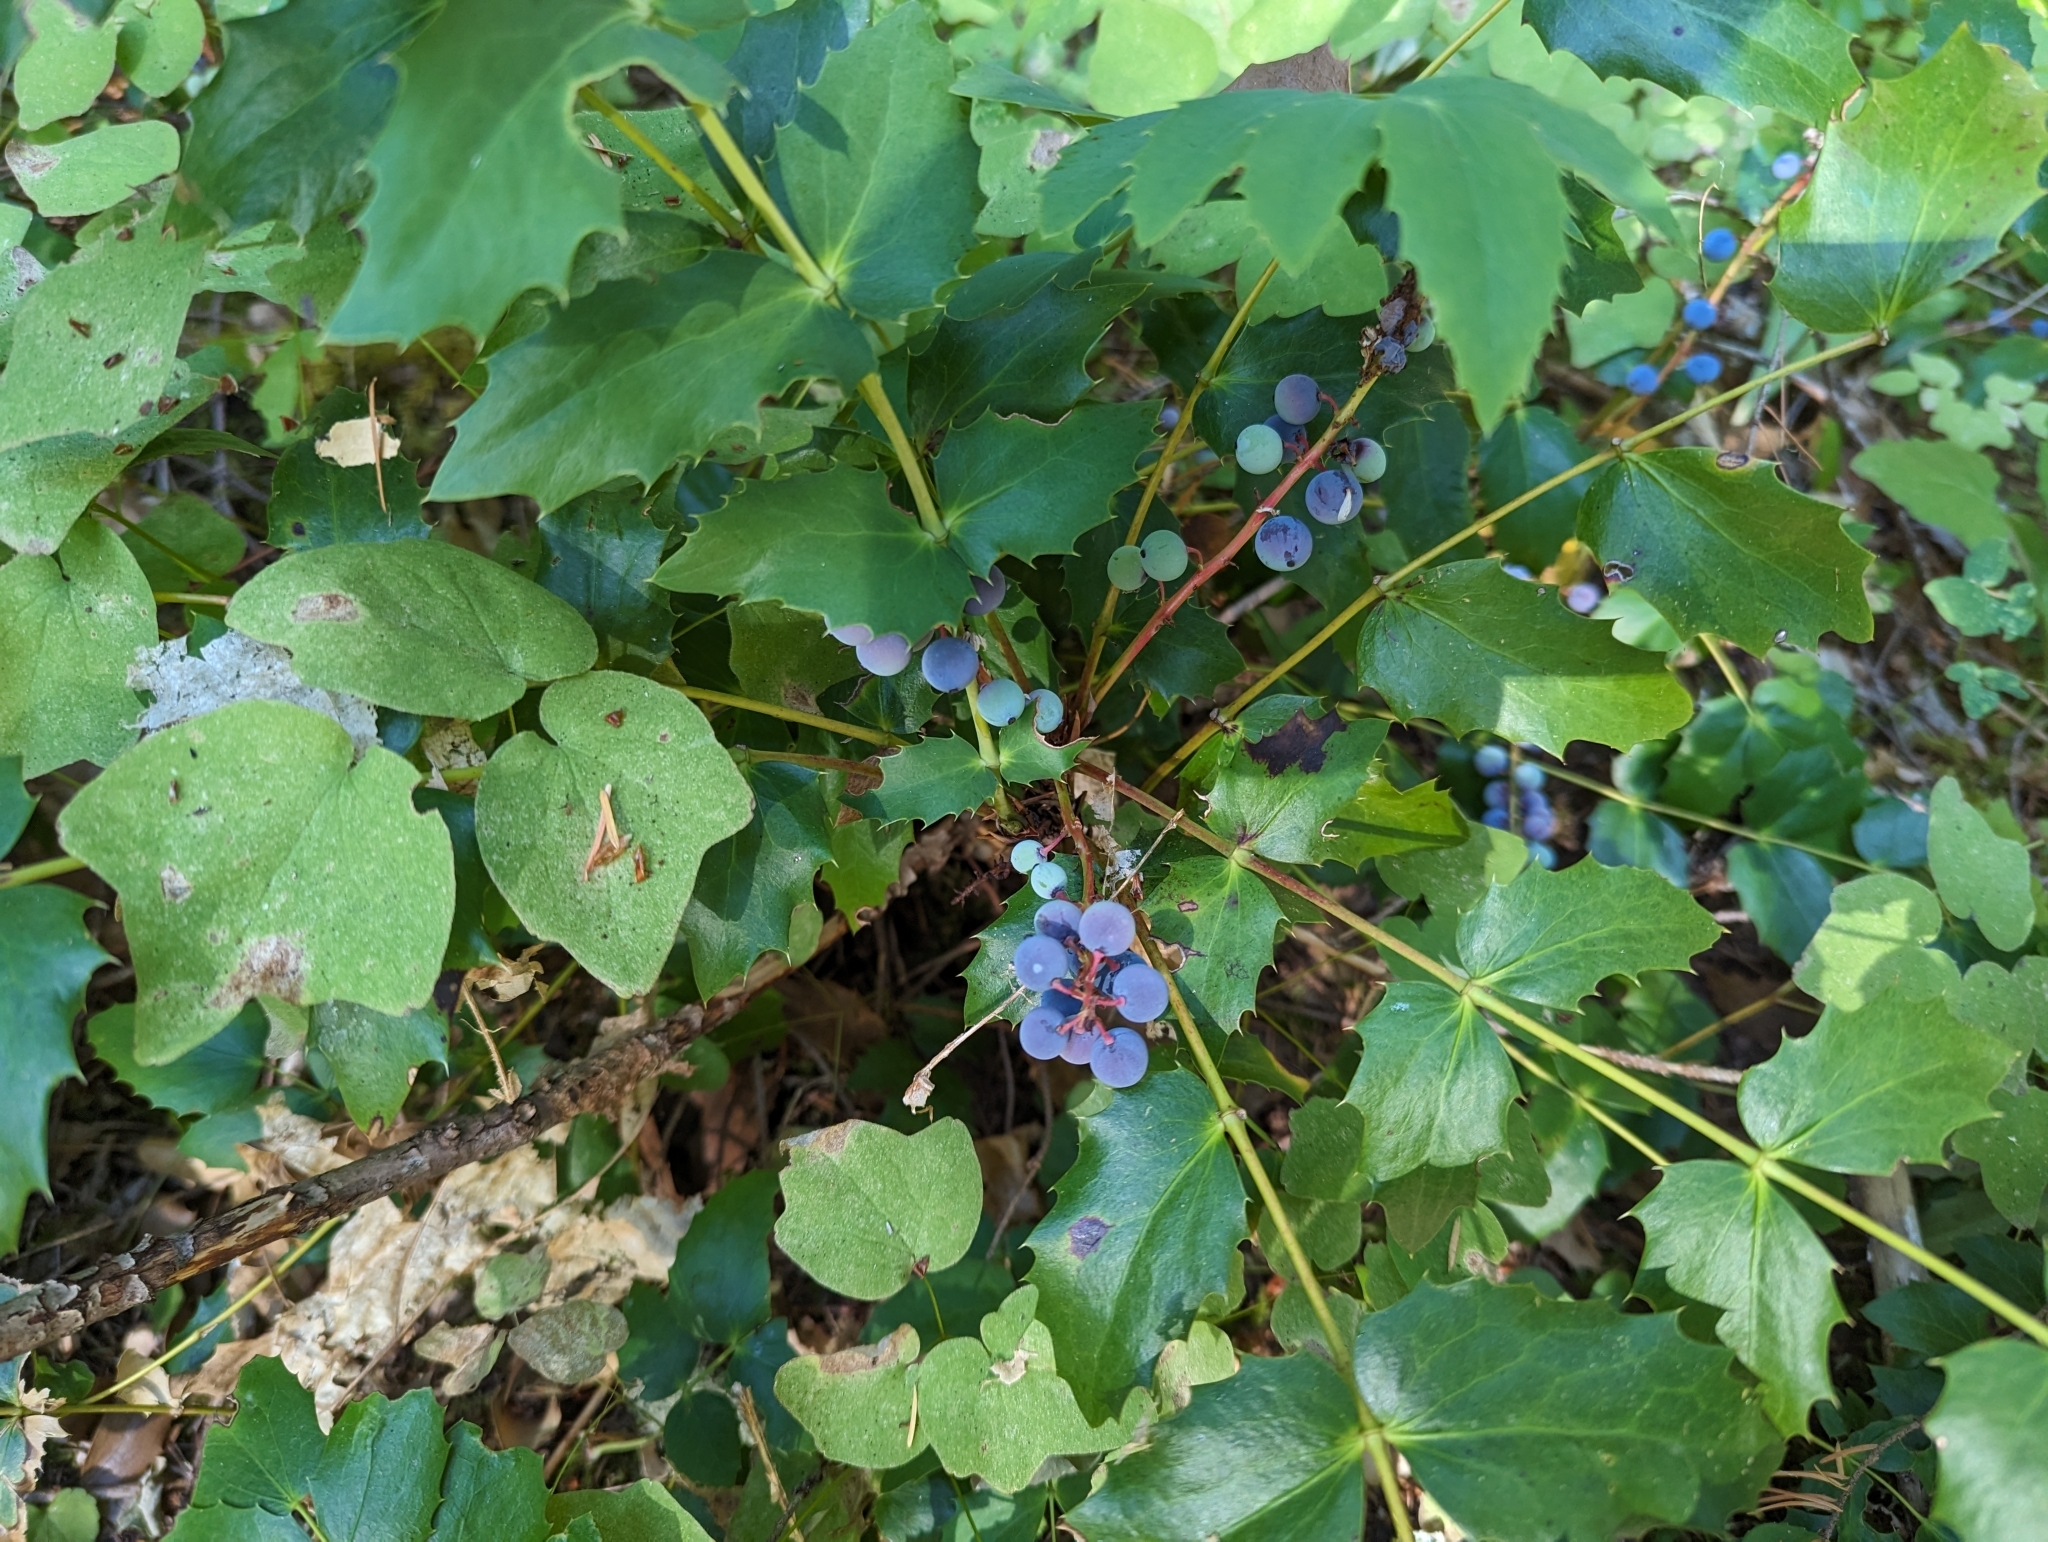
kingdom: Plantae
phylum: Tracheophyta
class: Magnoliopsida
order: Ranunculales
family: Berberidaceae
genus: Mahonia
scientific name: Mahonia nervosa
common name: Cascade oregon-grape
